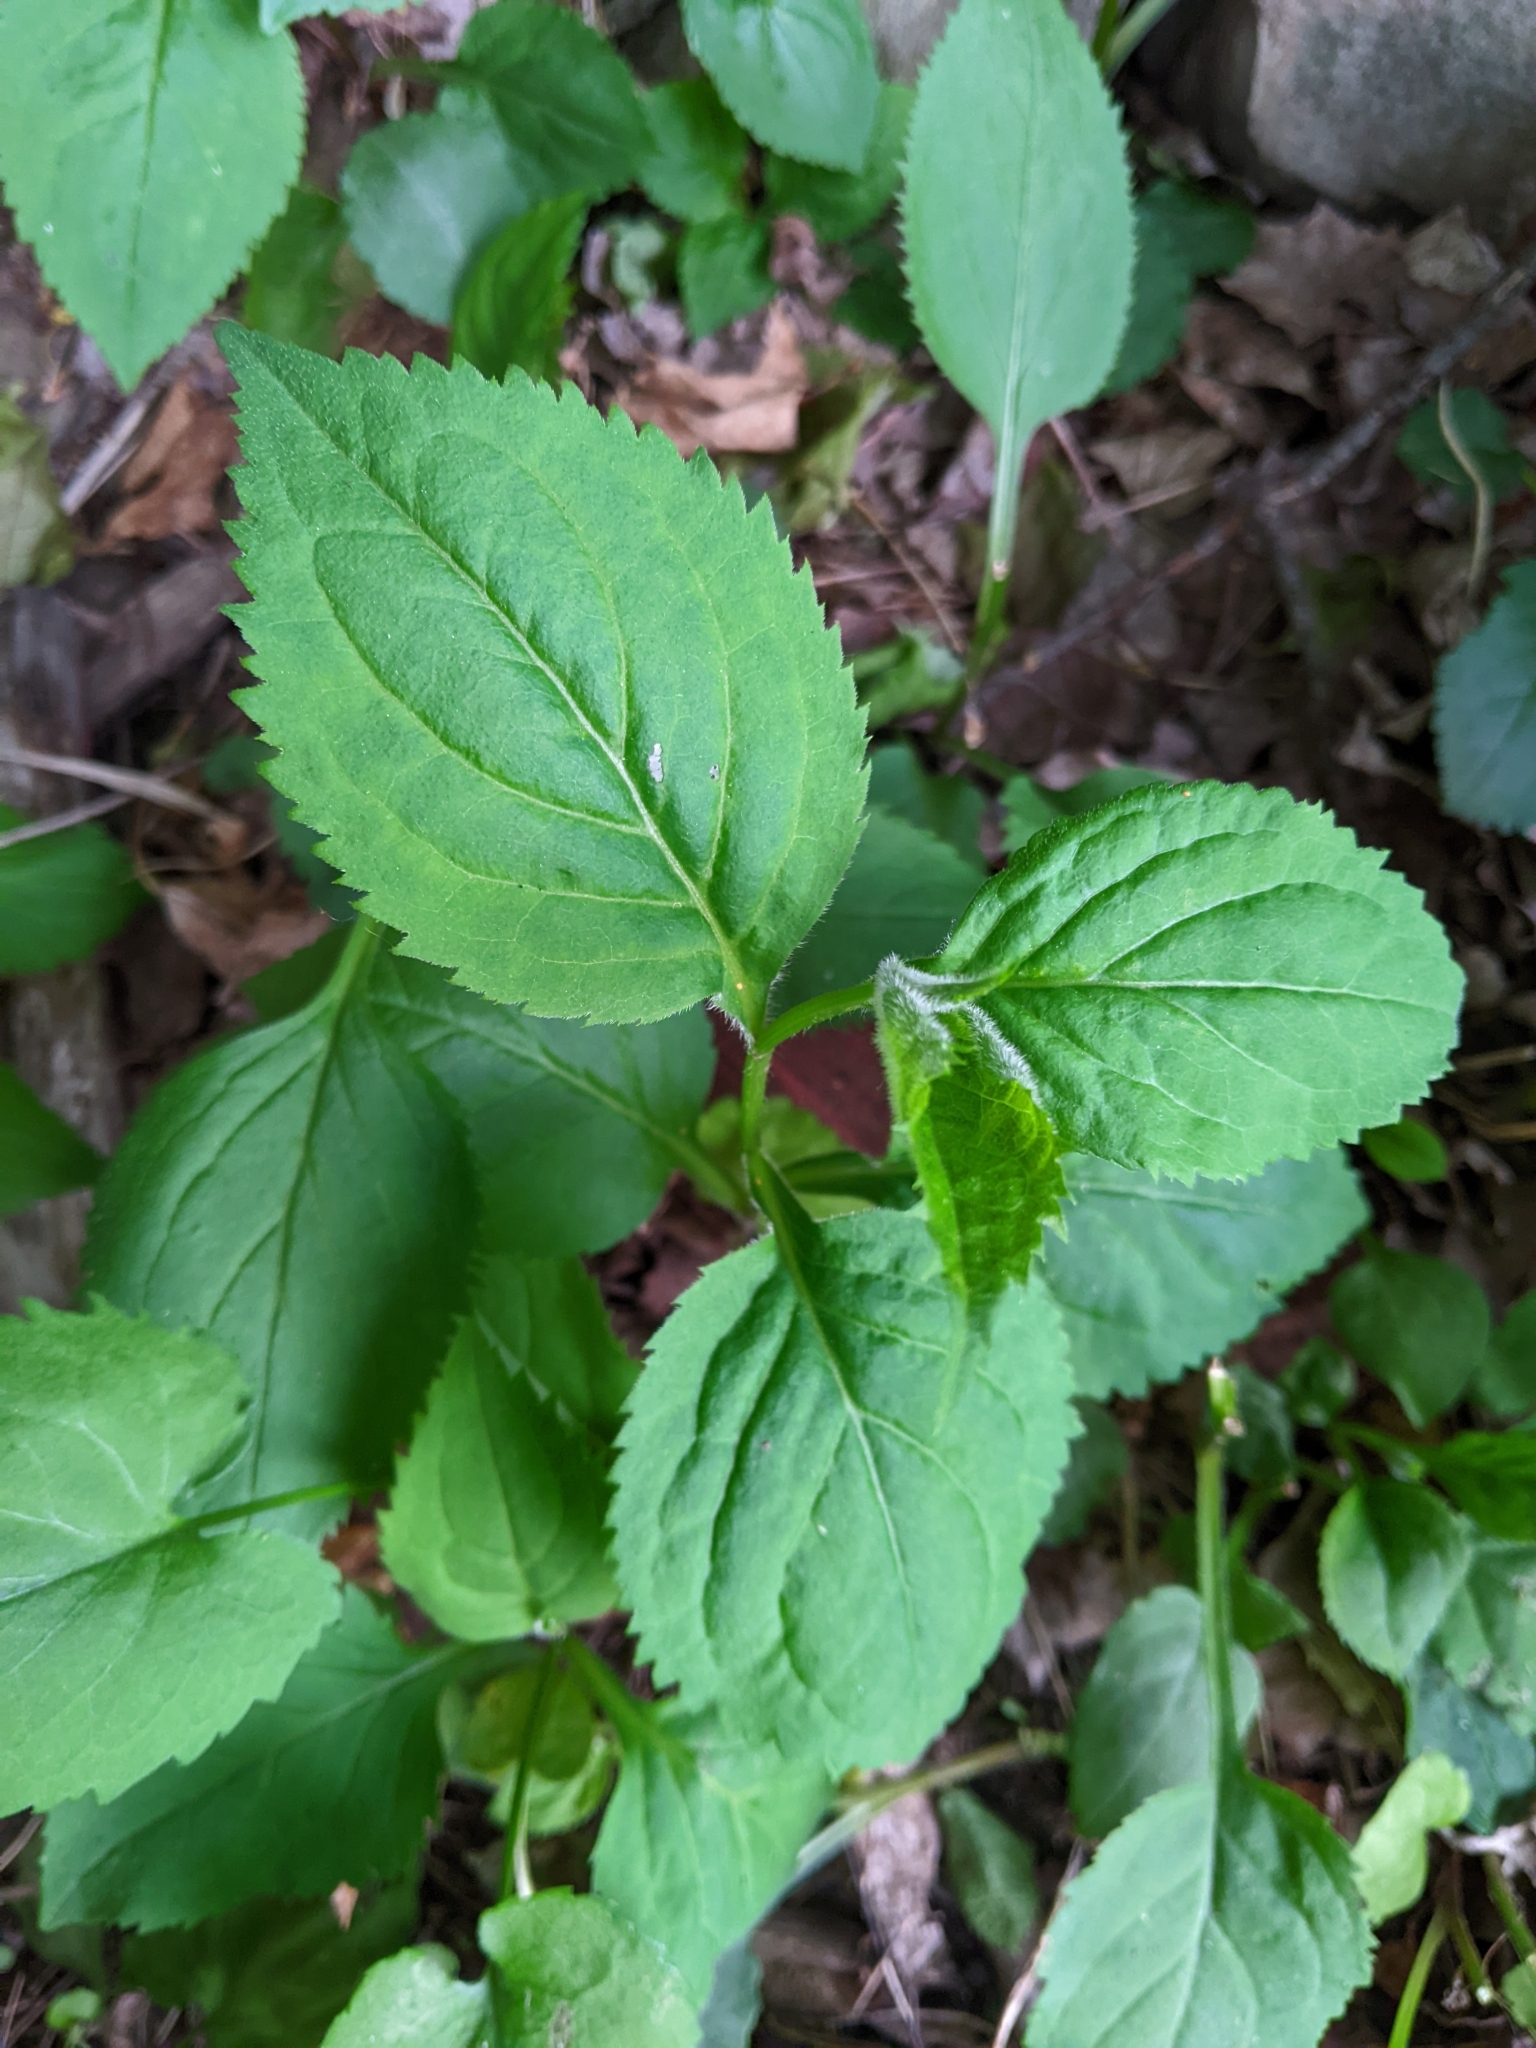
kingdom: Plantae
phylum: Tracheophyta
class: Magnoliopsida
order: Asterales
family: Asteraceae
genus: Solidago
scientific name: Solidago flexicaulis
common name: Zig-zag goldenrod
